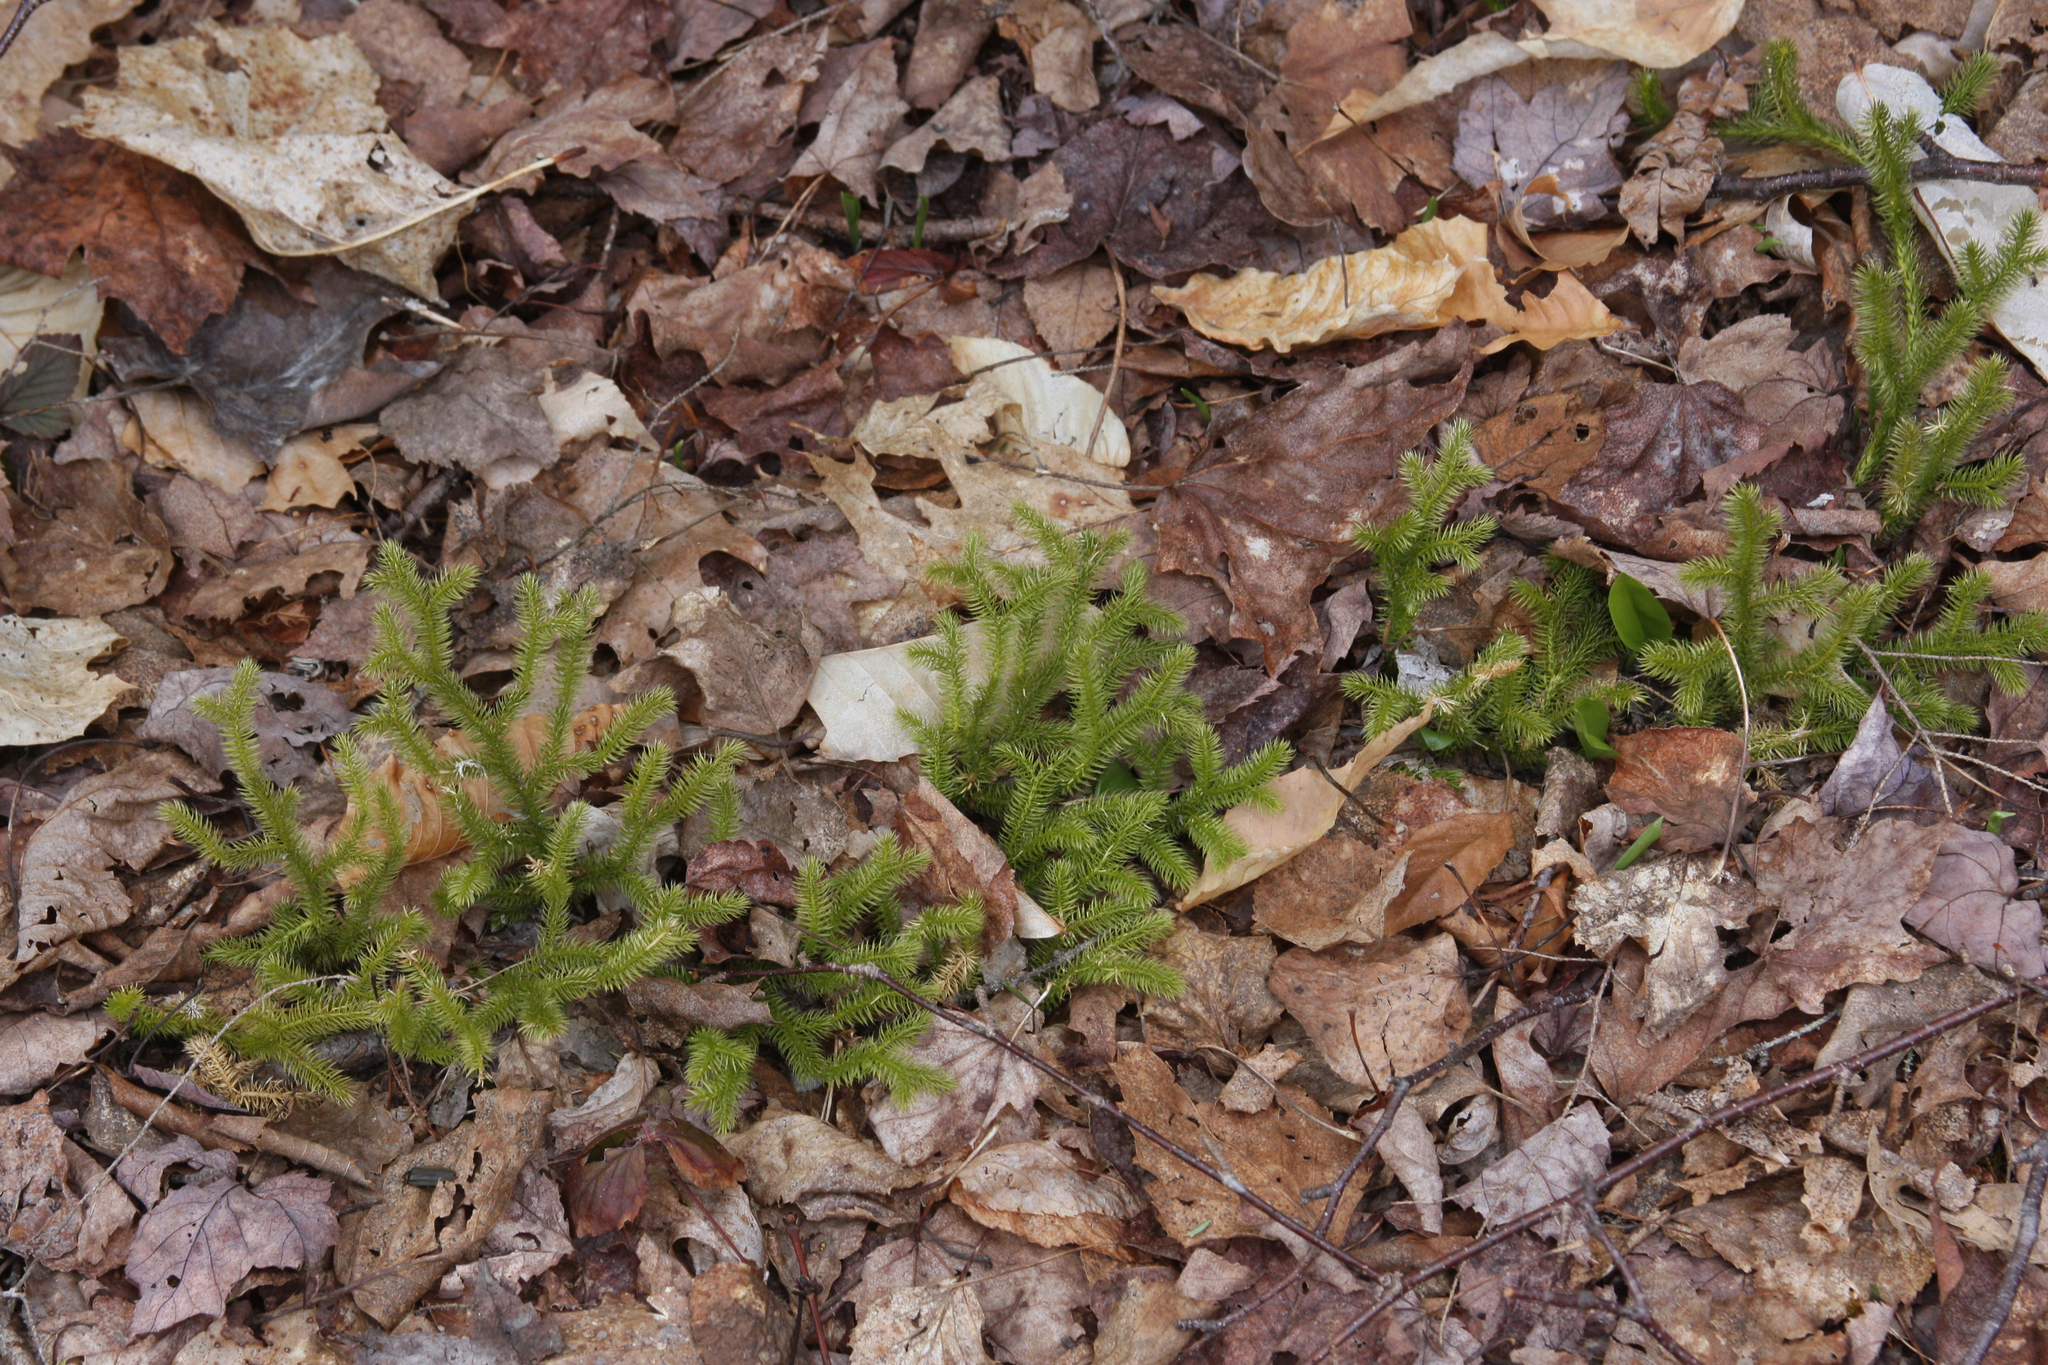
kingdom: Plantae
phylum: Tracheophyta
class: Lycopodiopsida
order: Lycopodiales
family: Lycopodiaceae
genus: Lycopodium
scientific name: Lycopodium clavatum
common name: Stag's-horn clubmoss
